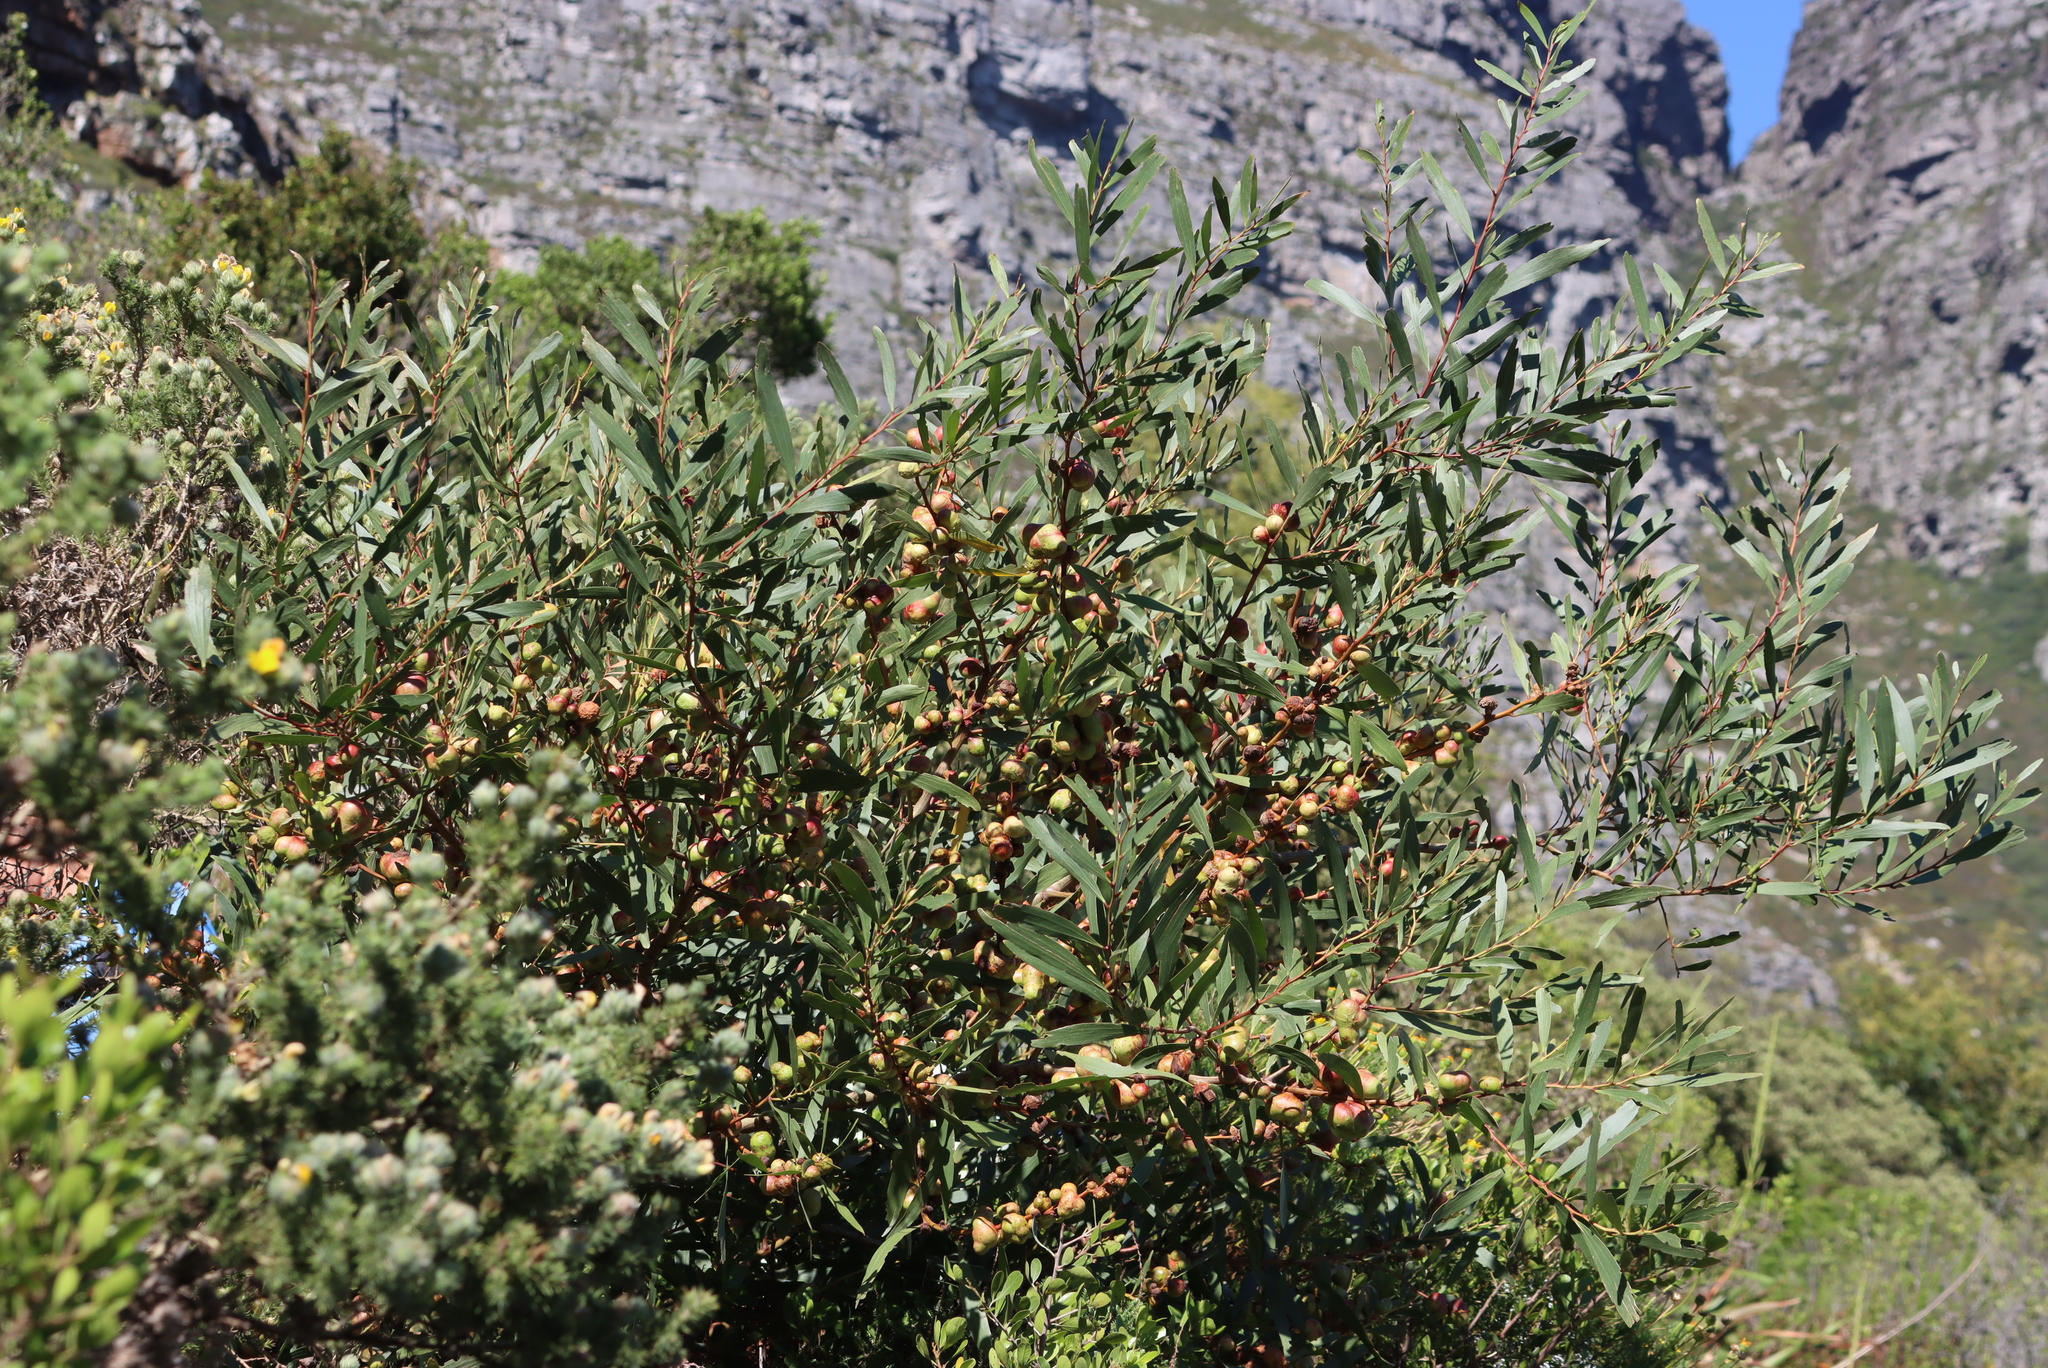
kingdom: Plantae
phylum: Tracheophyta
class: Magnoliopsida
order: Fabales
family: Fabaceae
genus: Acacia
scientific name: Acacia longifolia
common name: Sydney golden wattle
